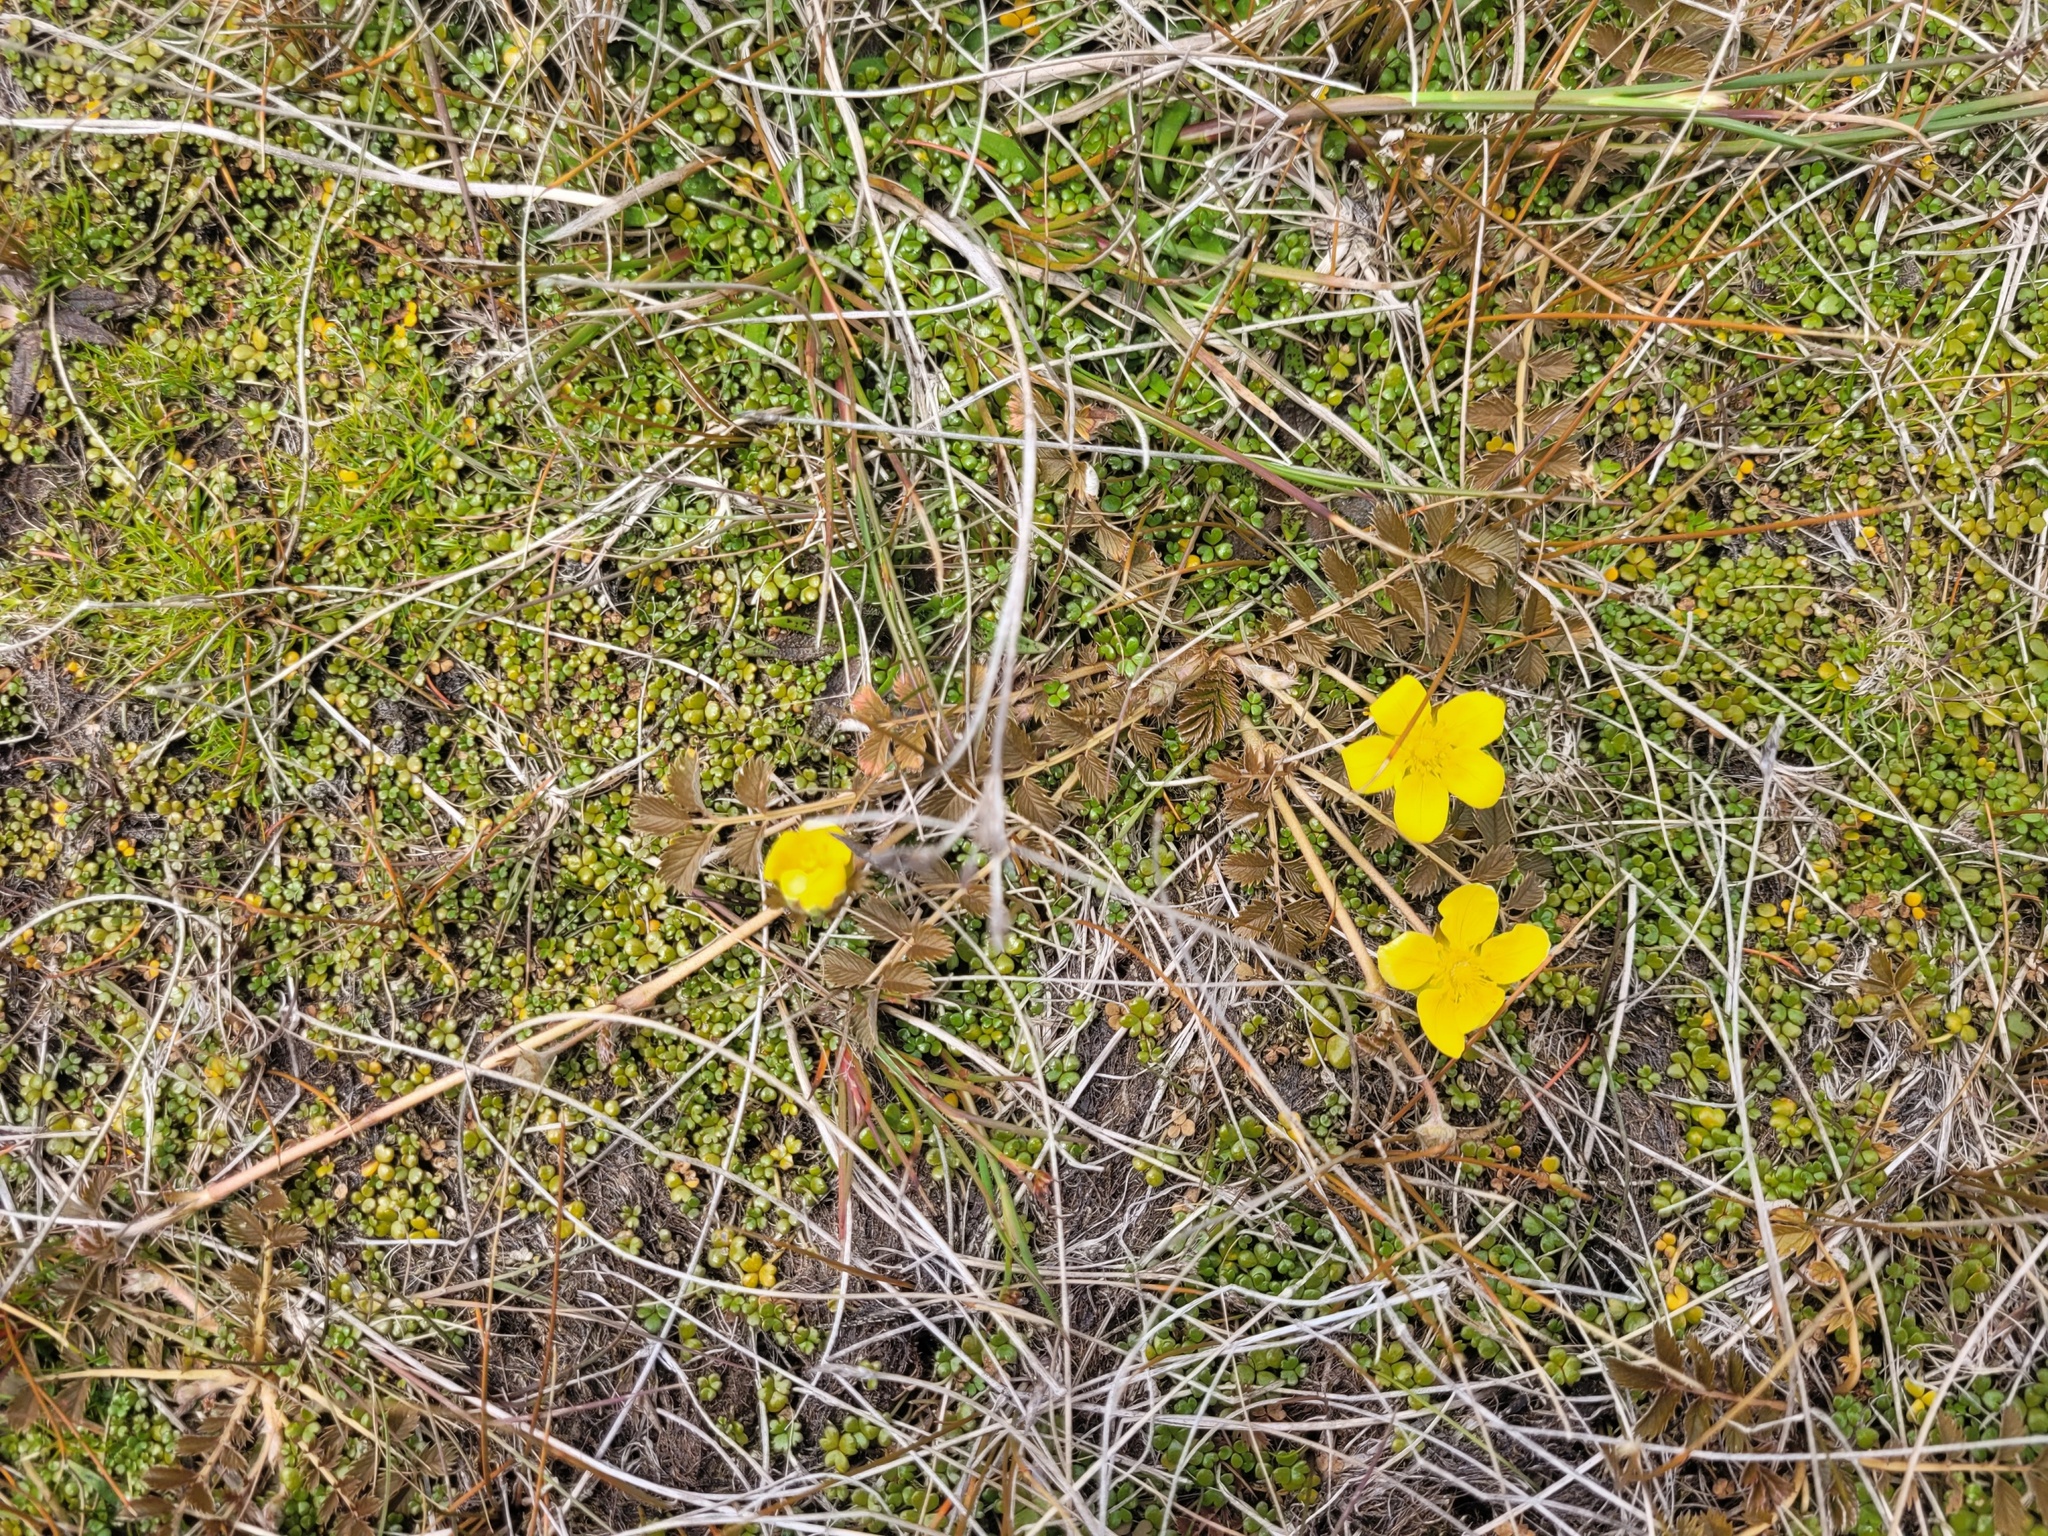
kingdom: Plantae
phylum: Tracheophyta
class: Magnoliopsida
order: Rosales
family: Rosaceae
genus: Argentina
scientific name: Argentina anserinoides
